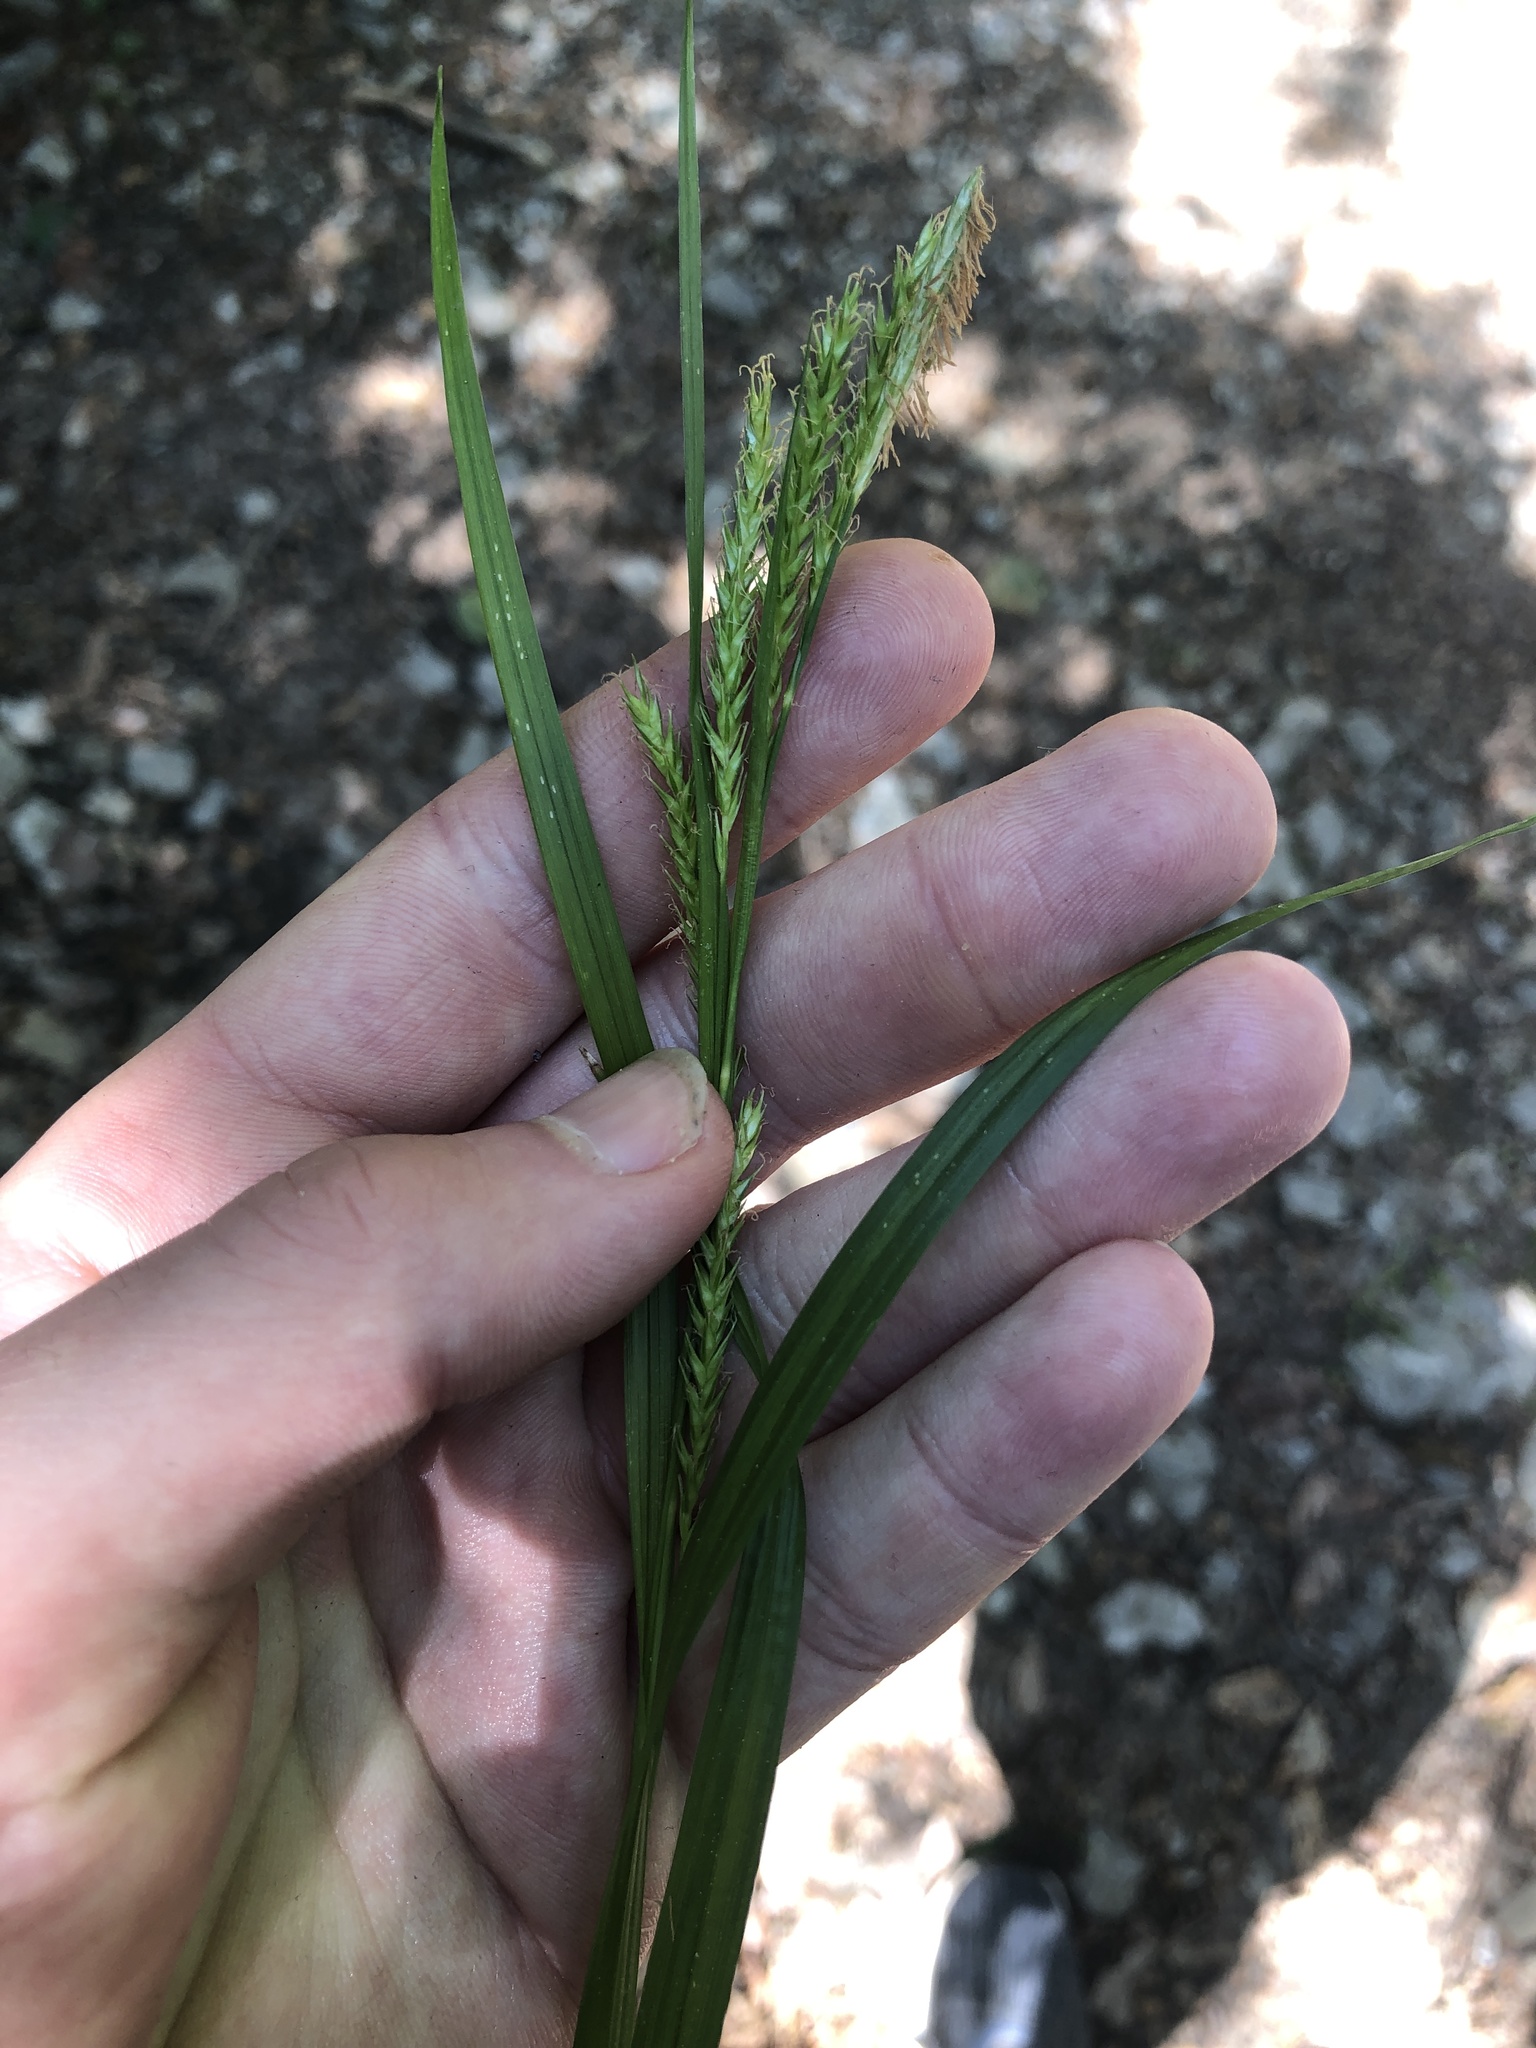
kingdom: Plantae
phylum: Tracheophyta
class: Liliopsida
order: Poales
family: Cyperaceae
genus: Carex
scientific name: Carex sylvatica
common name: Wood-sedge
